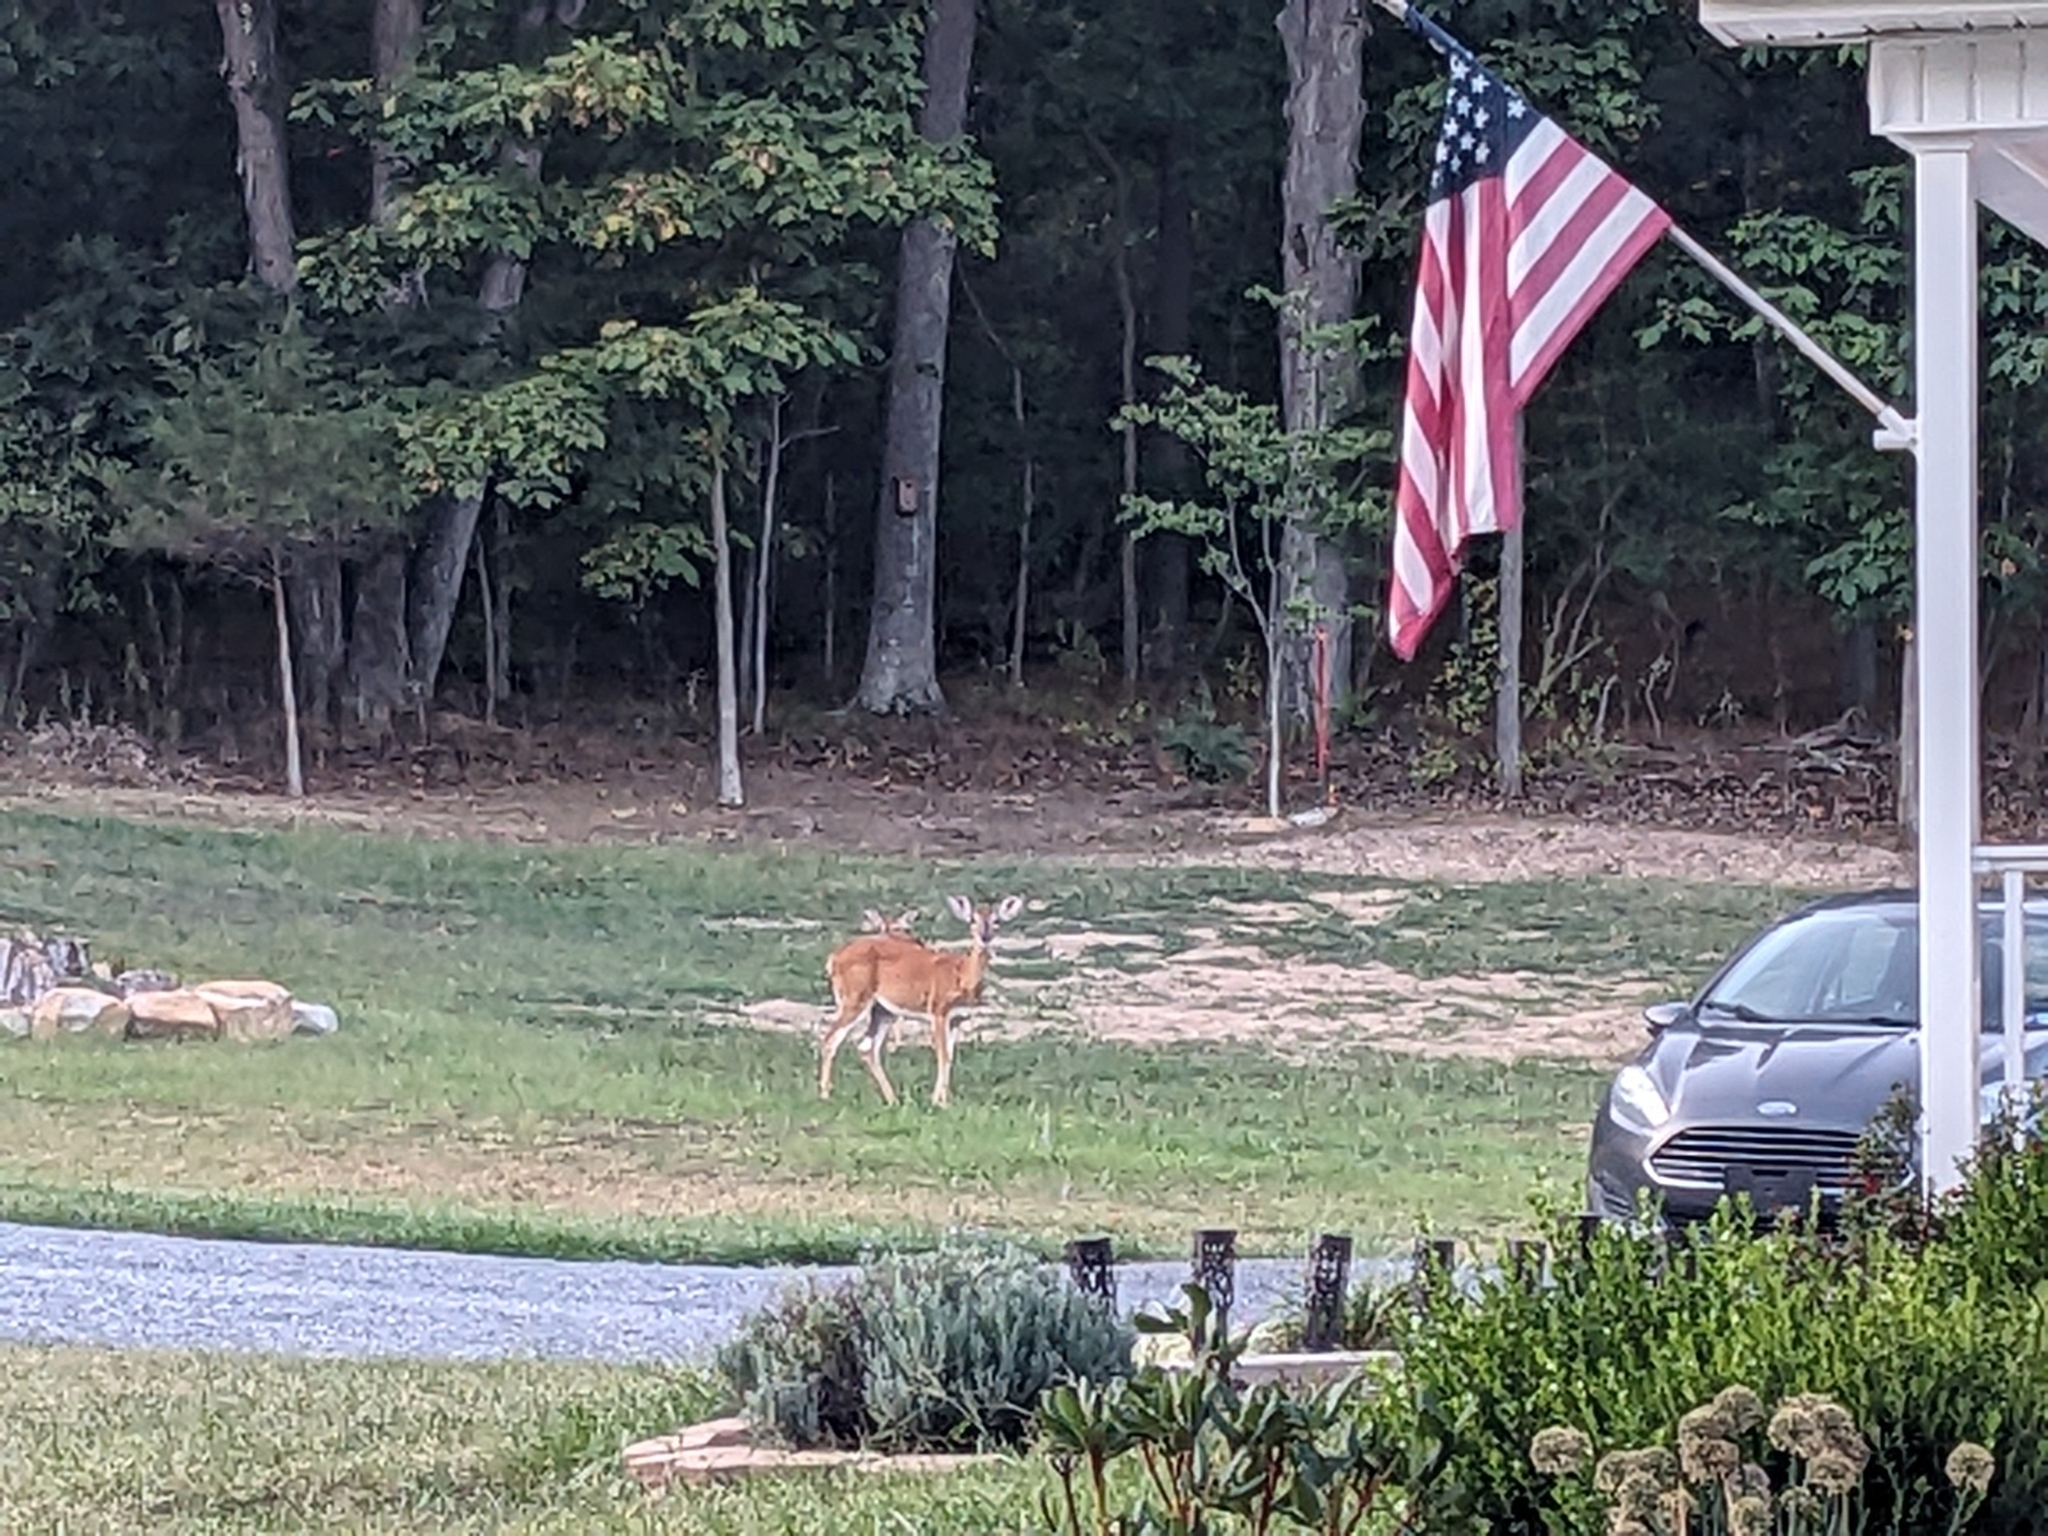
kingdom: Animalia
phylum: Chordata
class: Mammalia
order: Artiodactyla
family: Cervidae
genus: Odocoileus
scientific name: Odocoileus virginianus
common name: White-tailed deer
